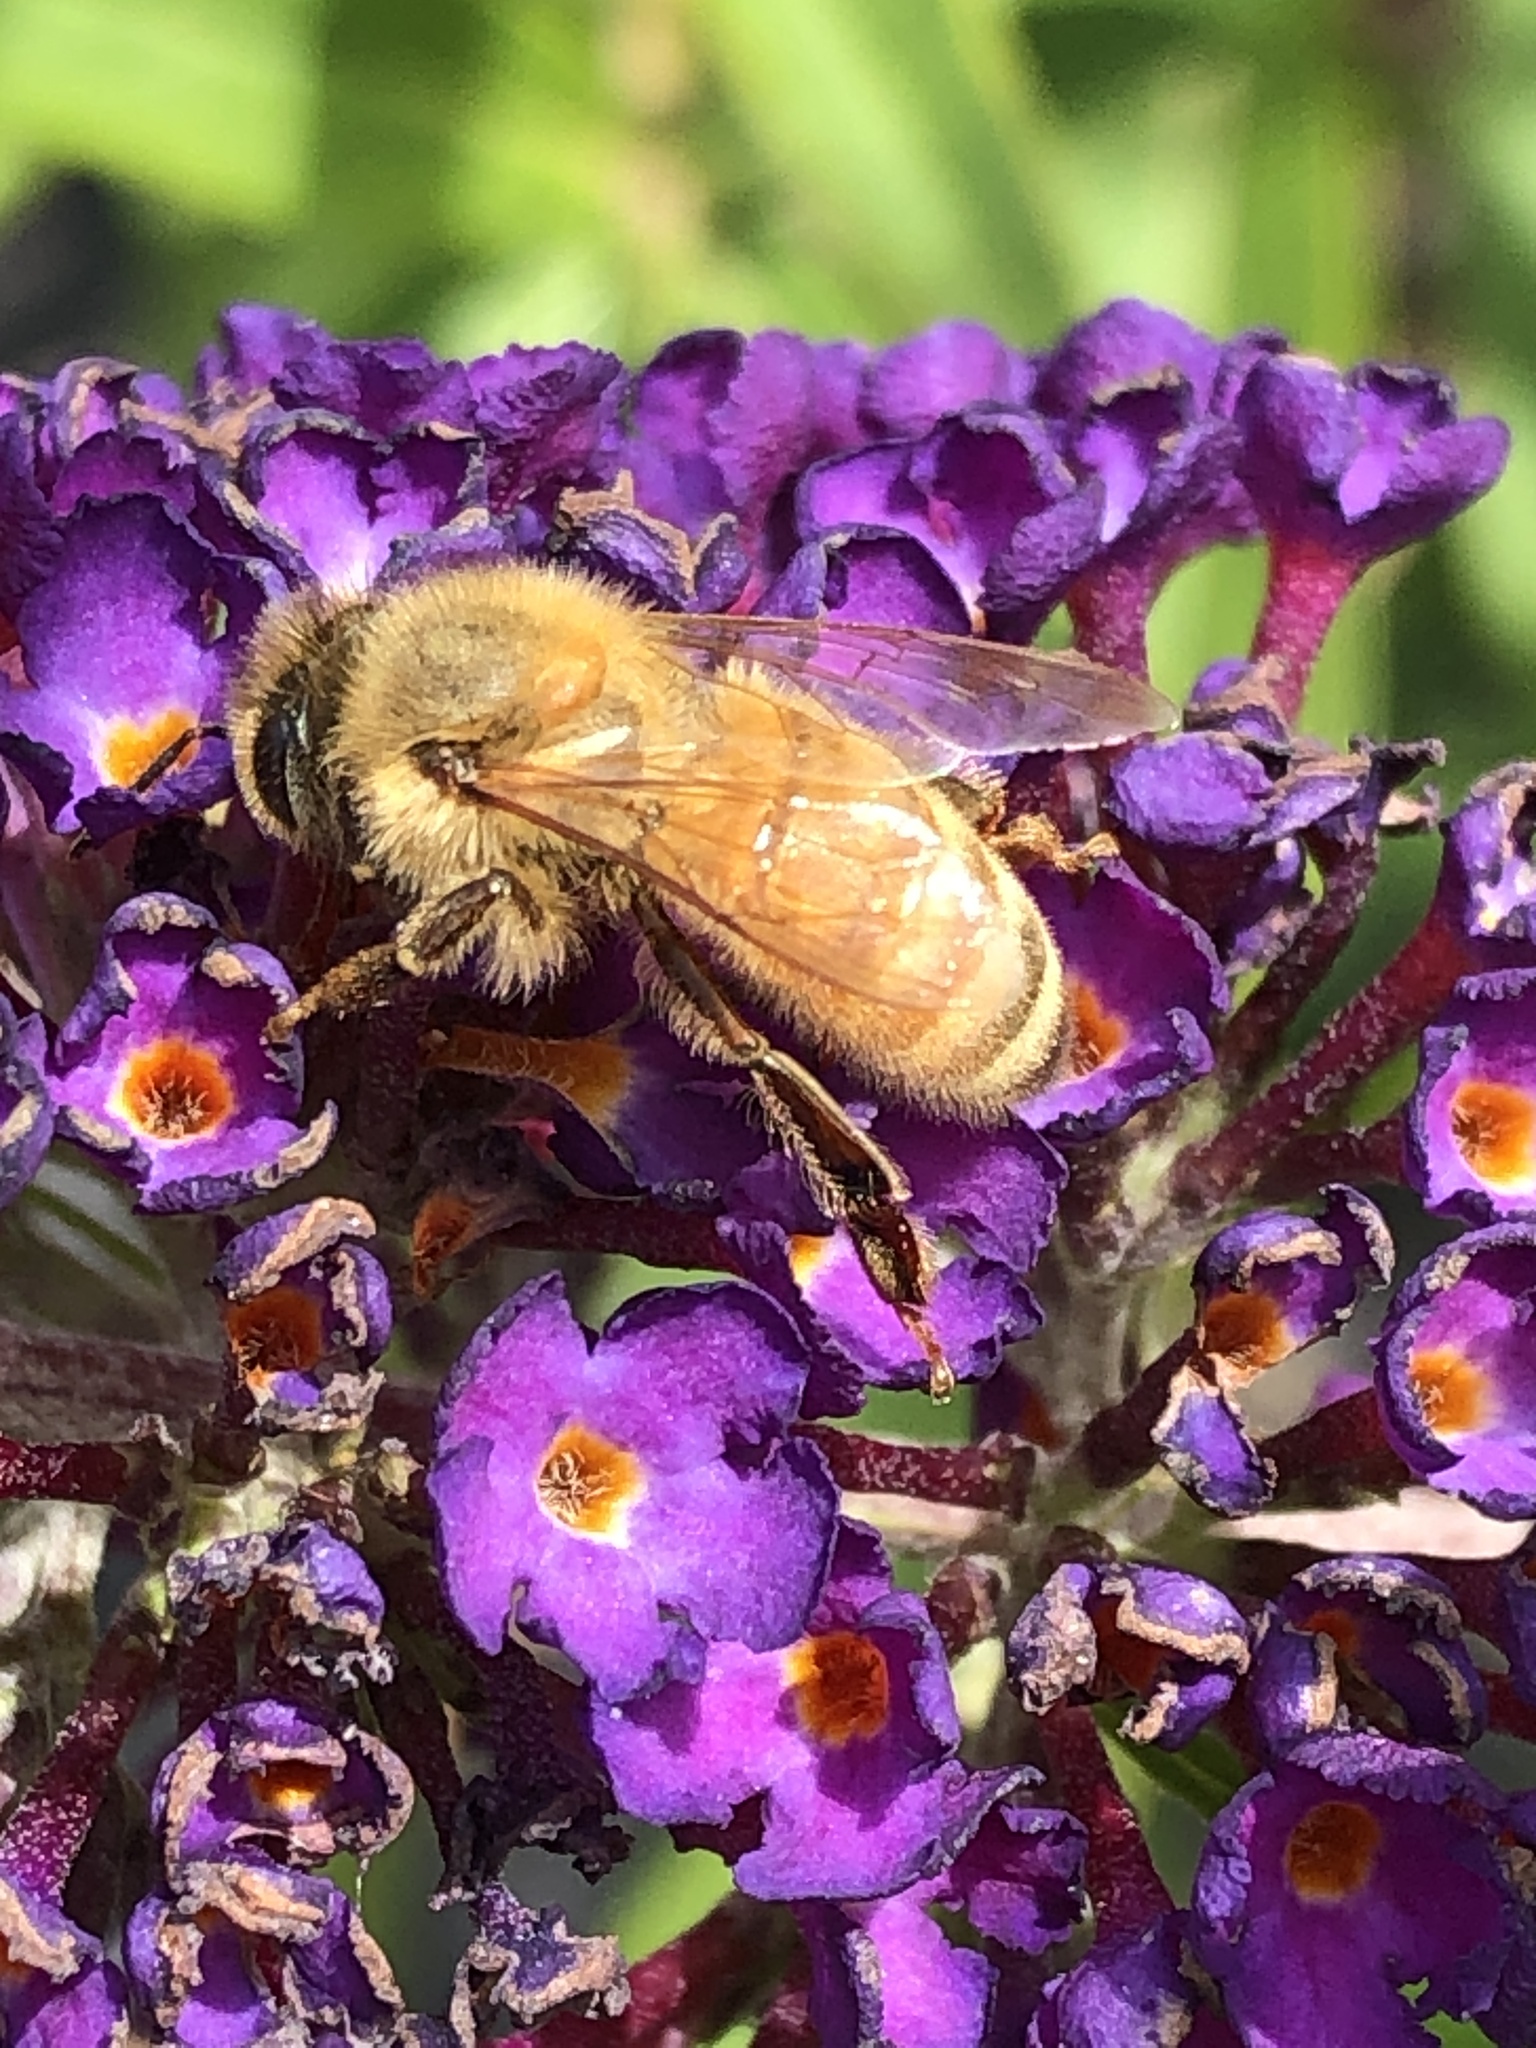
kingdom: Animalia
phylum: Arthropoda
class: Insecta
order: Hymenoptera
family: Apidae
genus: Apis
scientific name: Apis mellifera
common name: Honey bee
